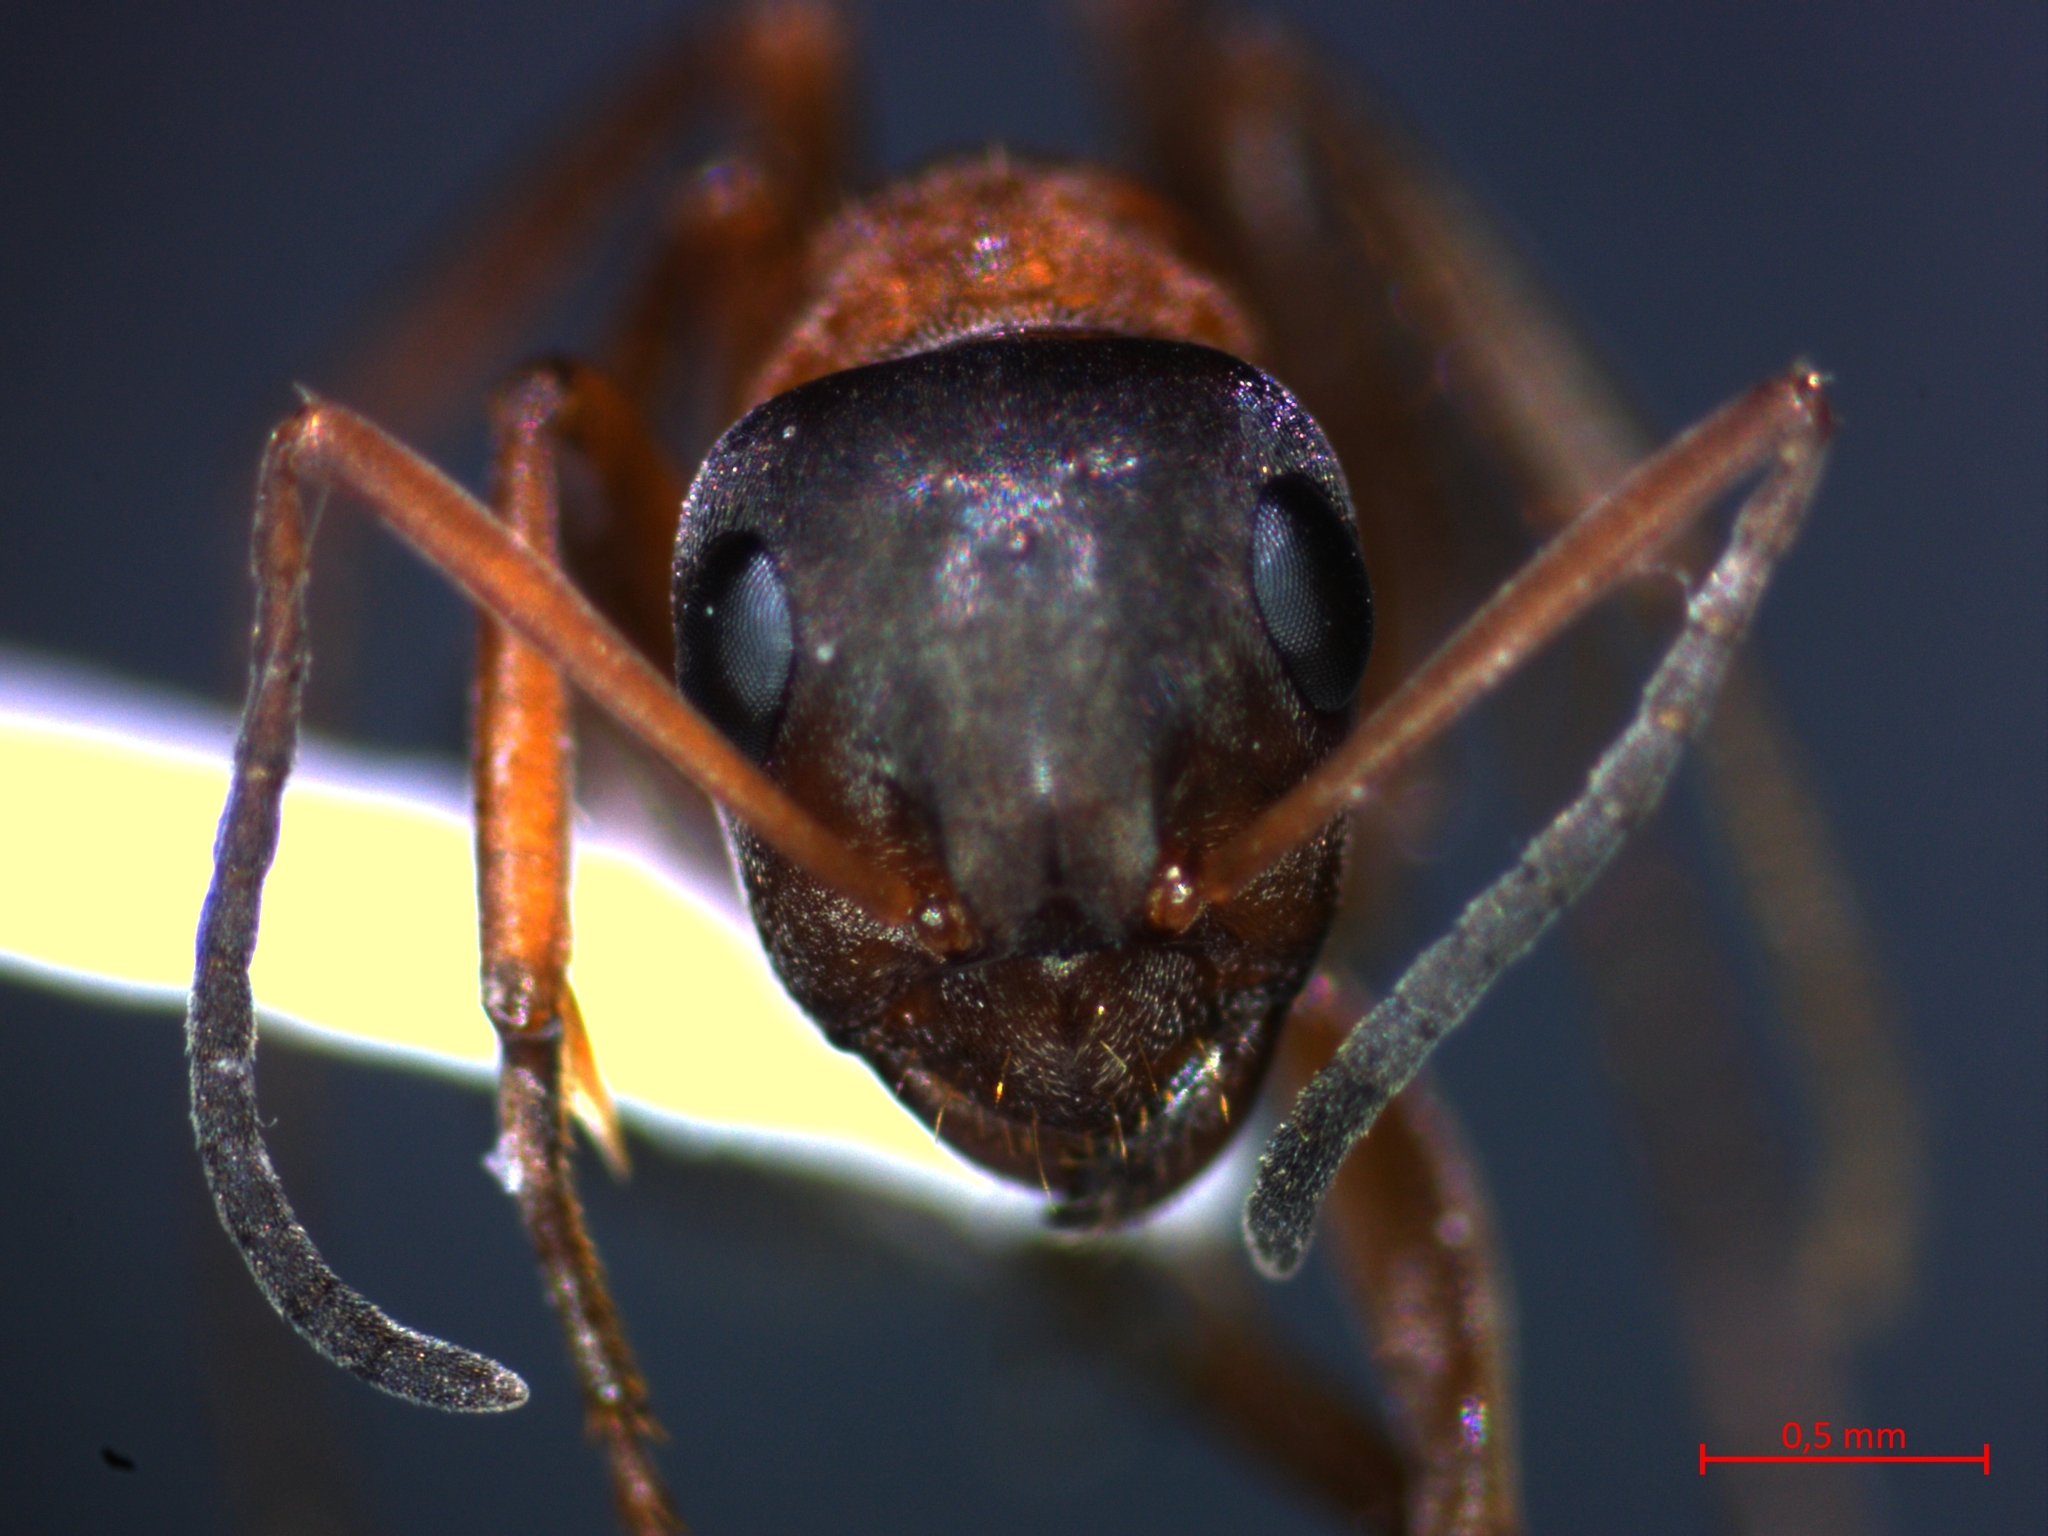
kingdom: Animalia
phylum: Arthropoda
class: Insecta
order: Hymenoptera
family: Formicidae
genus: Formica
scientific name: Formica rufibarbis
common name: Red barbed ant
